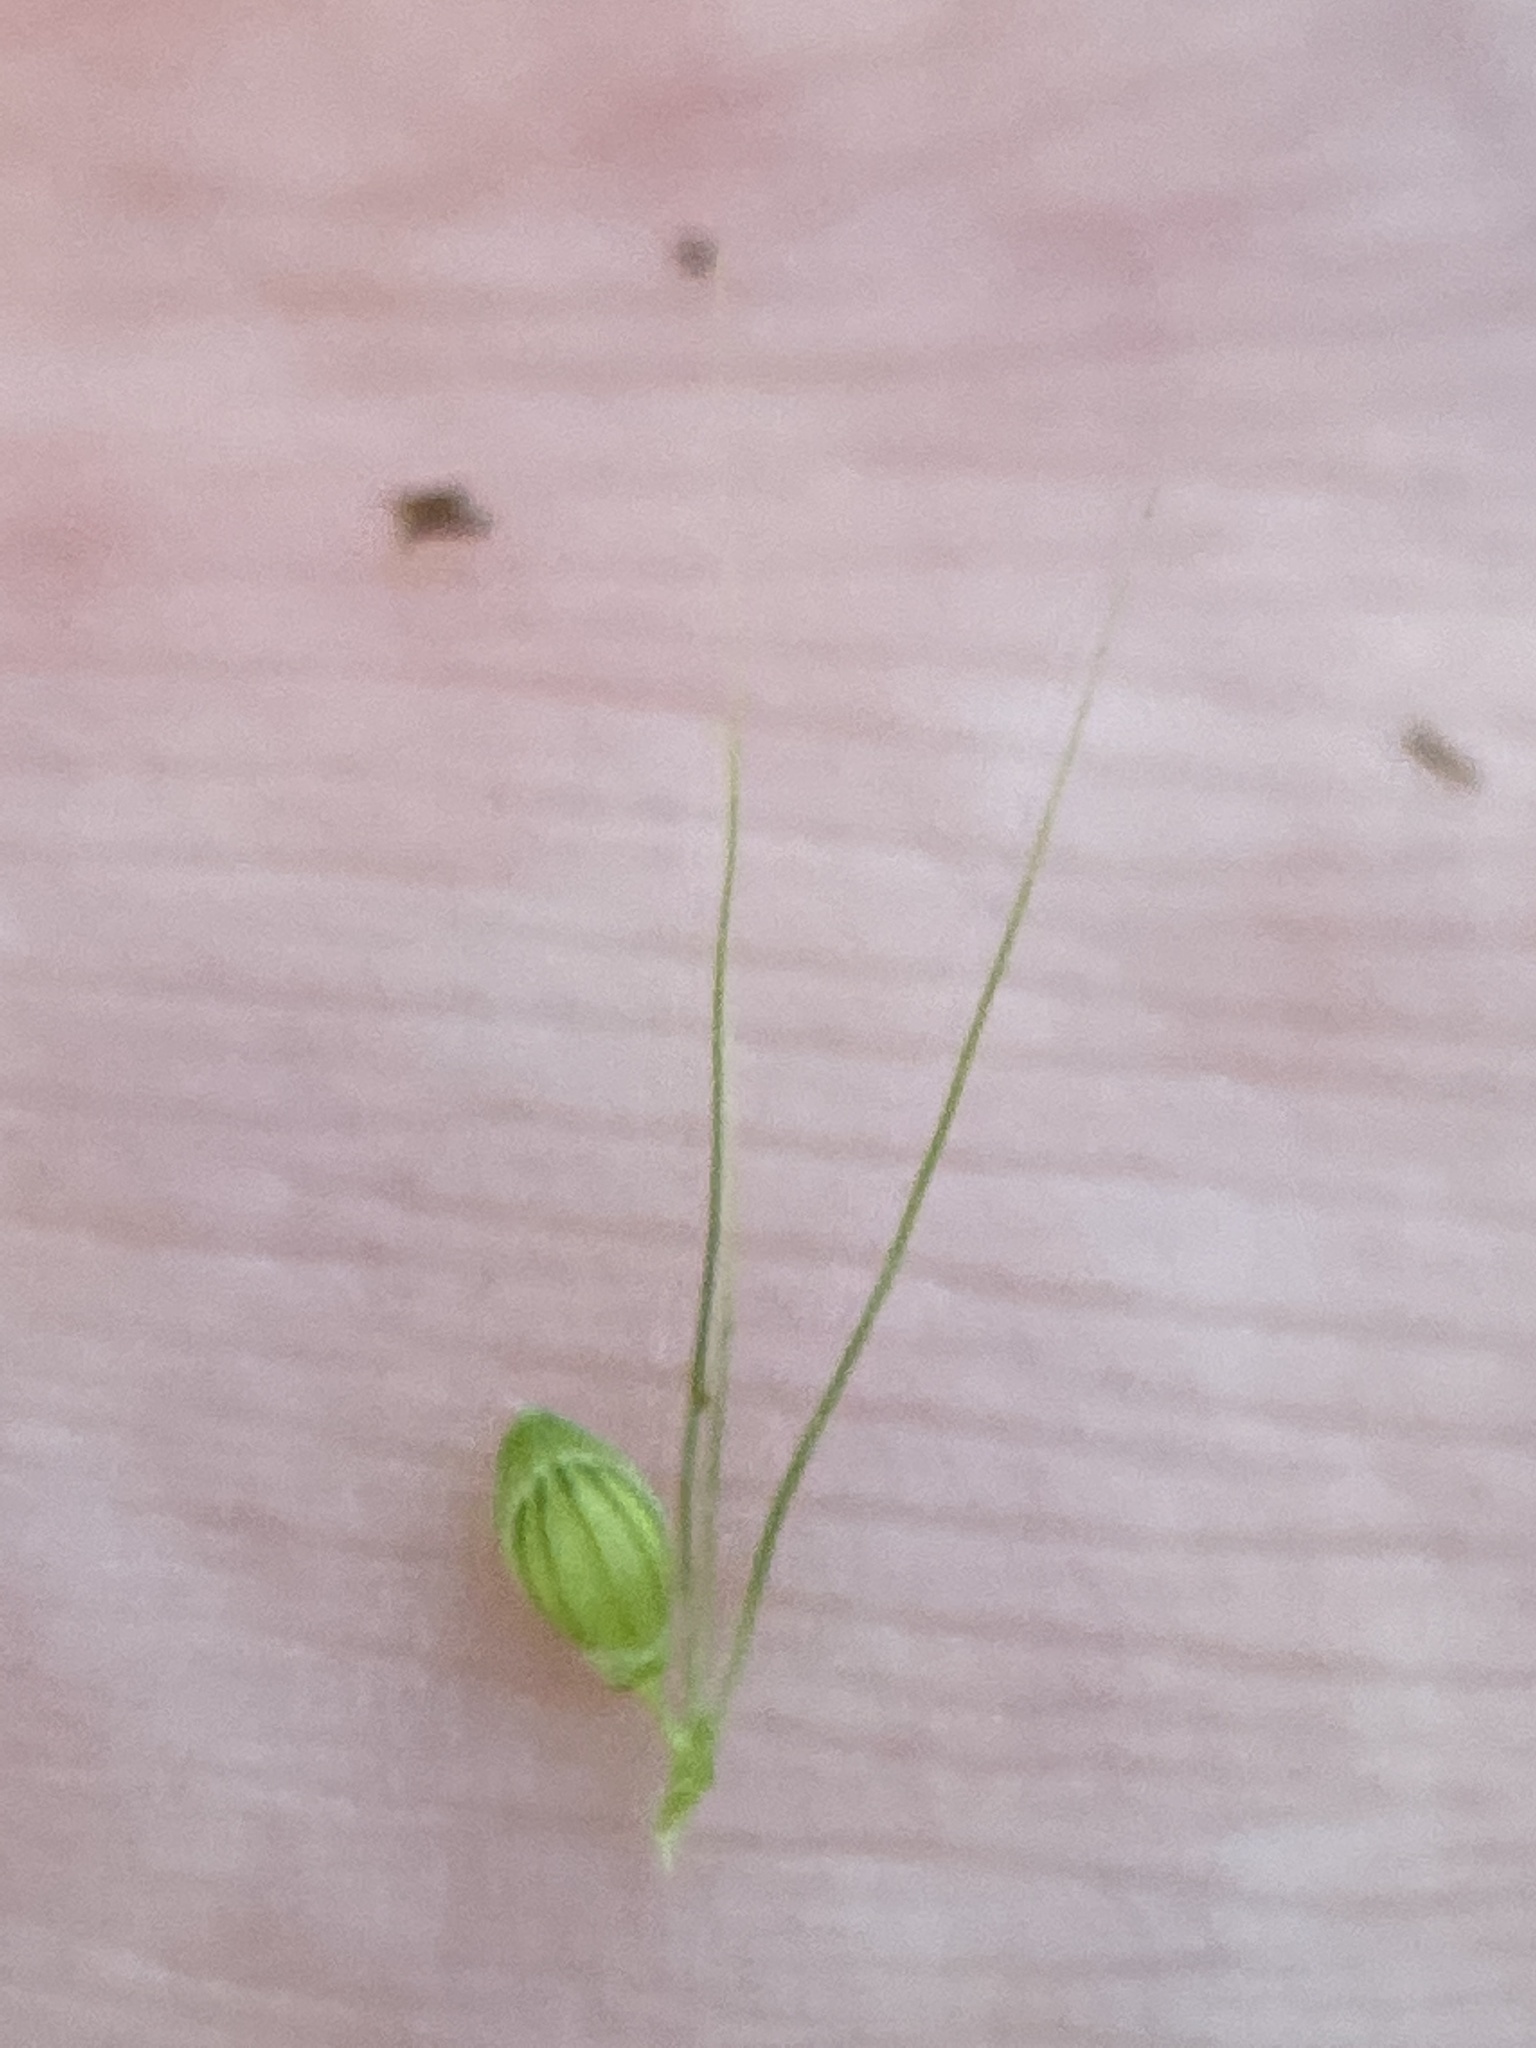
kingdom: Plantae
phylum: Tracheophyta
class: Liliopsida
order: Poales
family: Poaceae
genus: Setaria
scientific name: Setaria faberi
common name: Nodding bristle-grass
